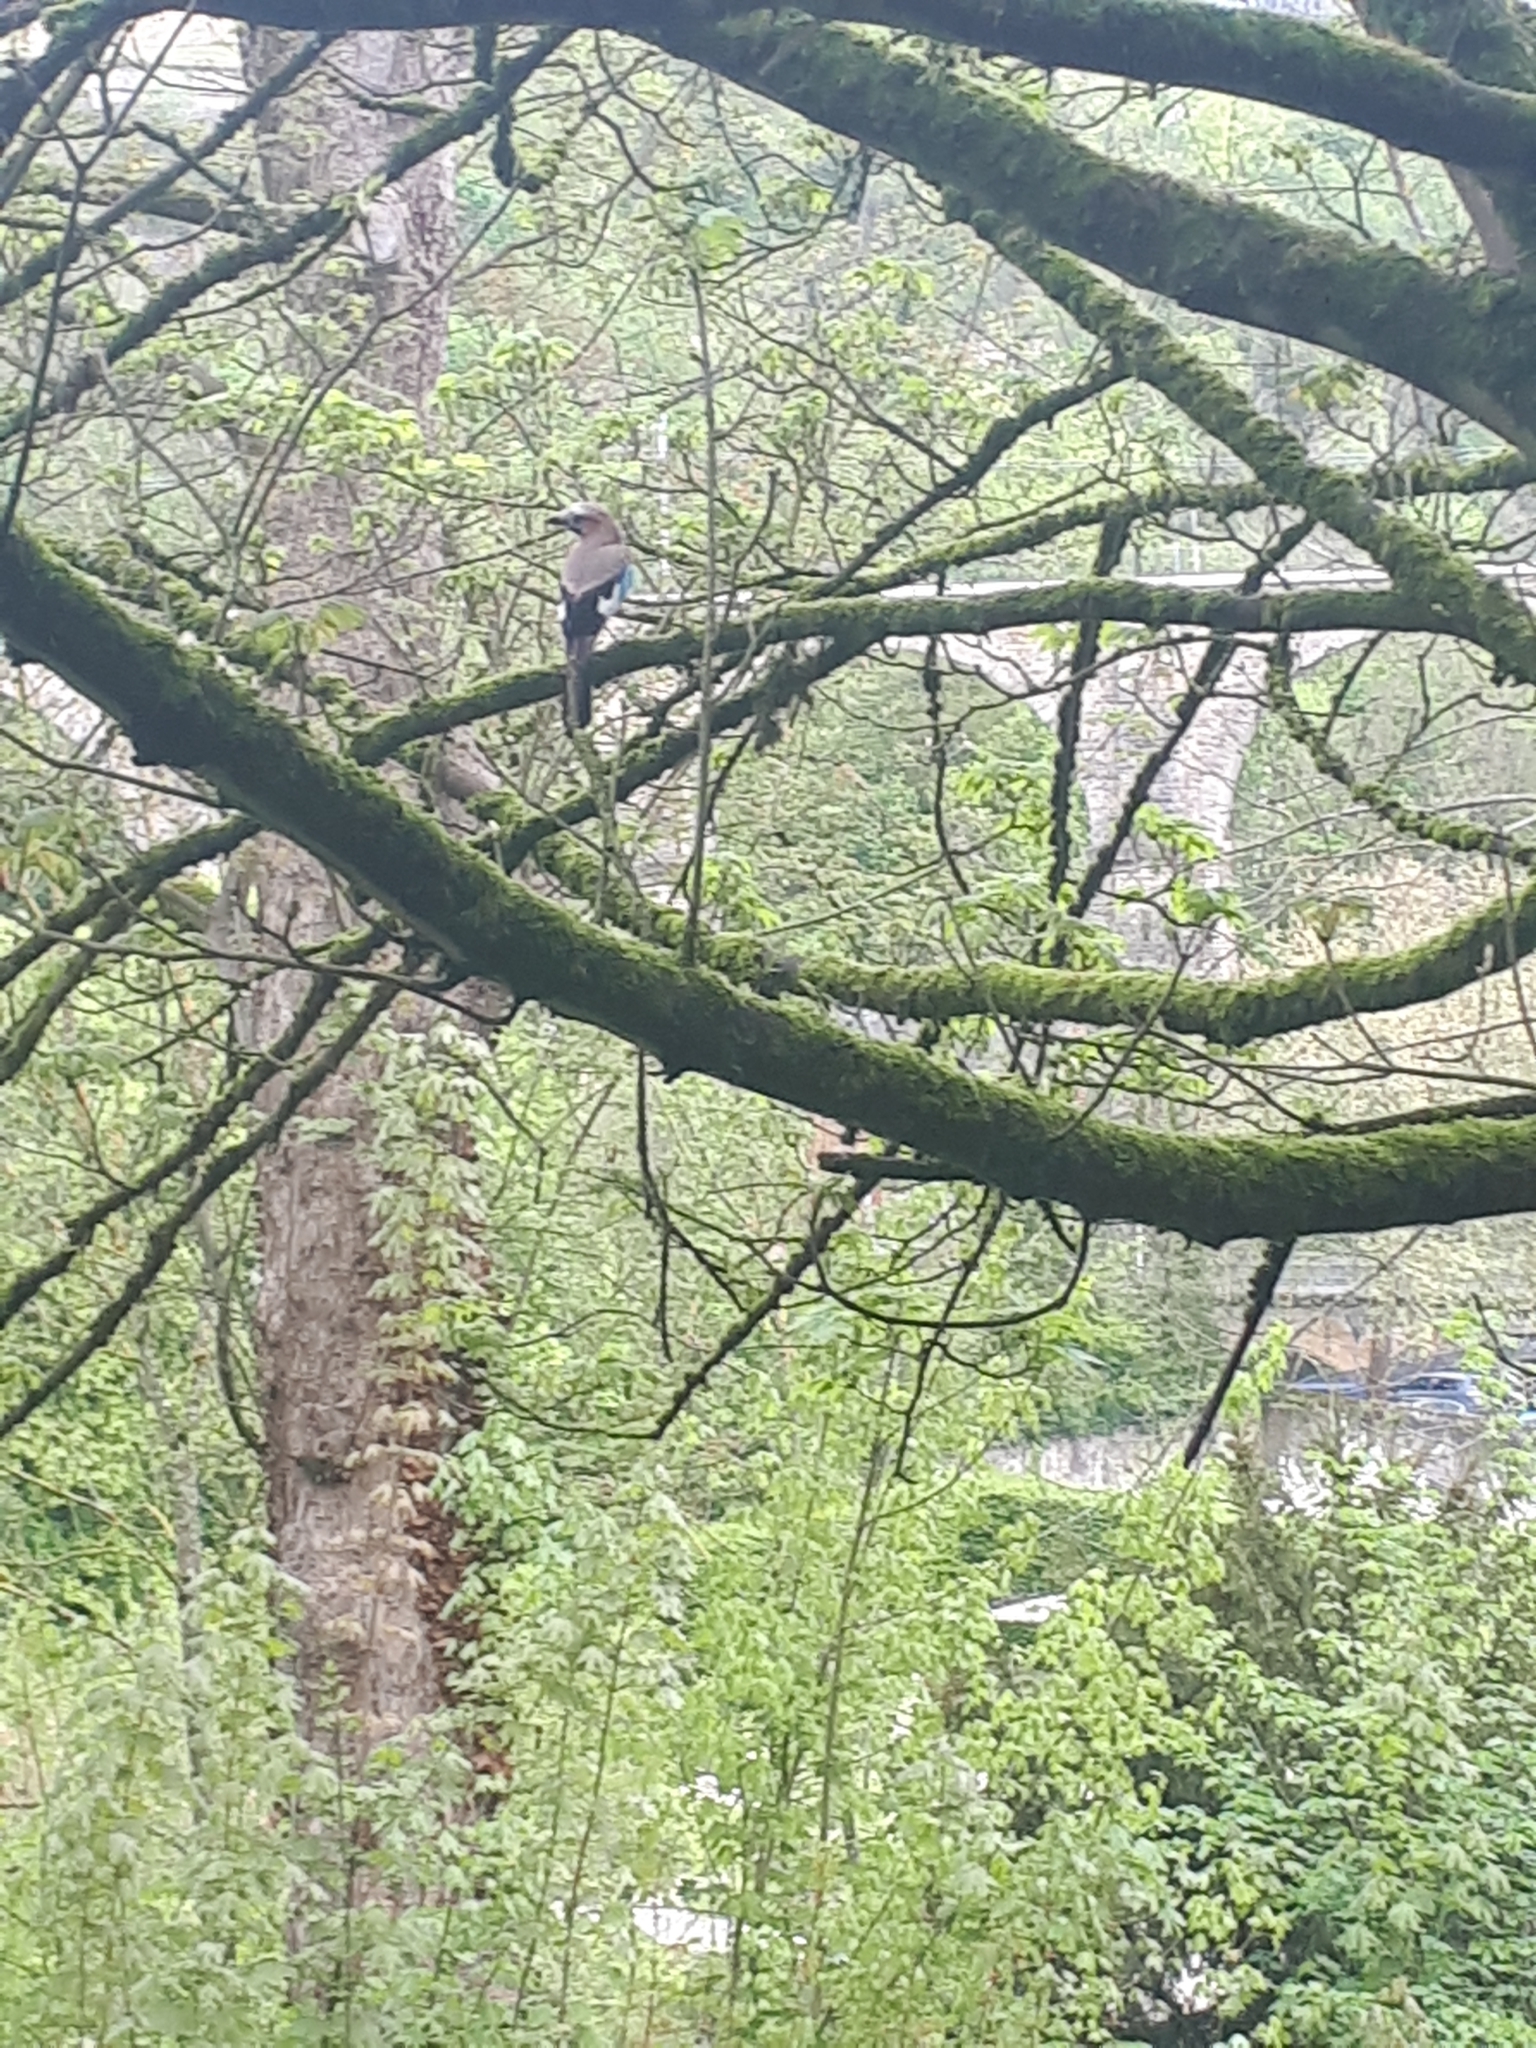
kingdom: Animalia
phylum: Chordata
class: Aves
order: Passeriformes
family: Corvidae
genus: Garrulus
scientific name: Garrulus glandarius
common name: Eurasian jay
